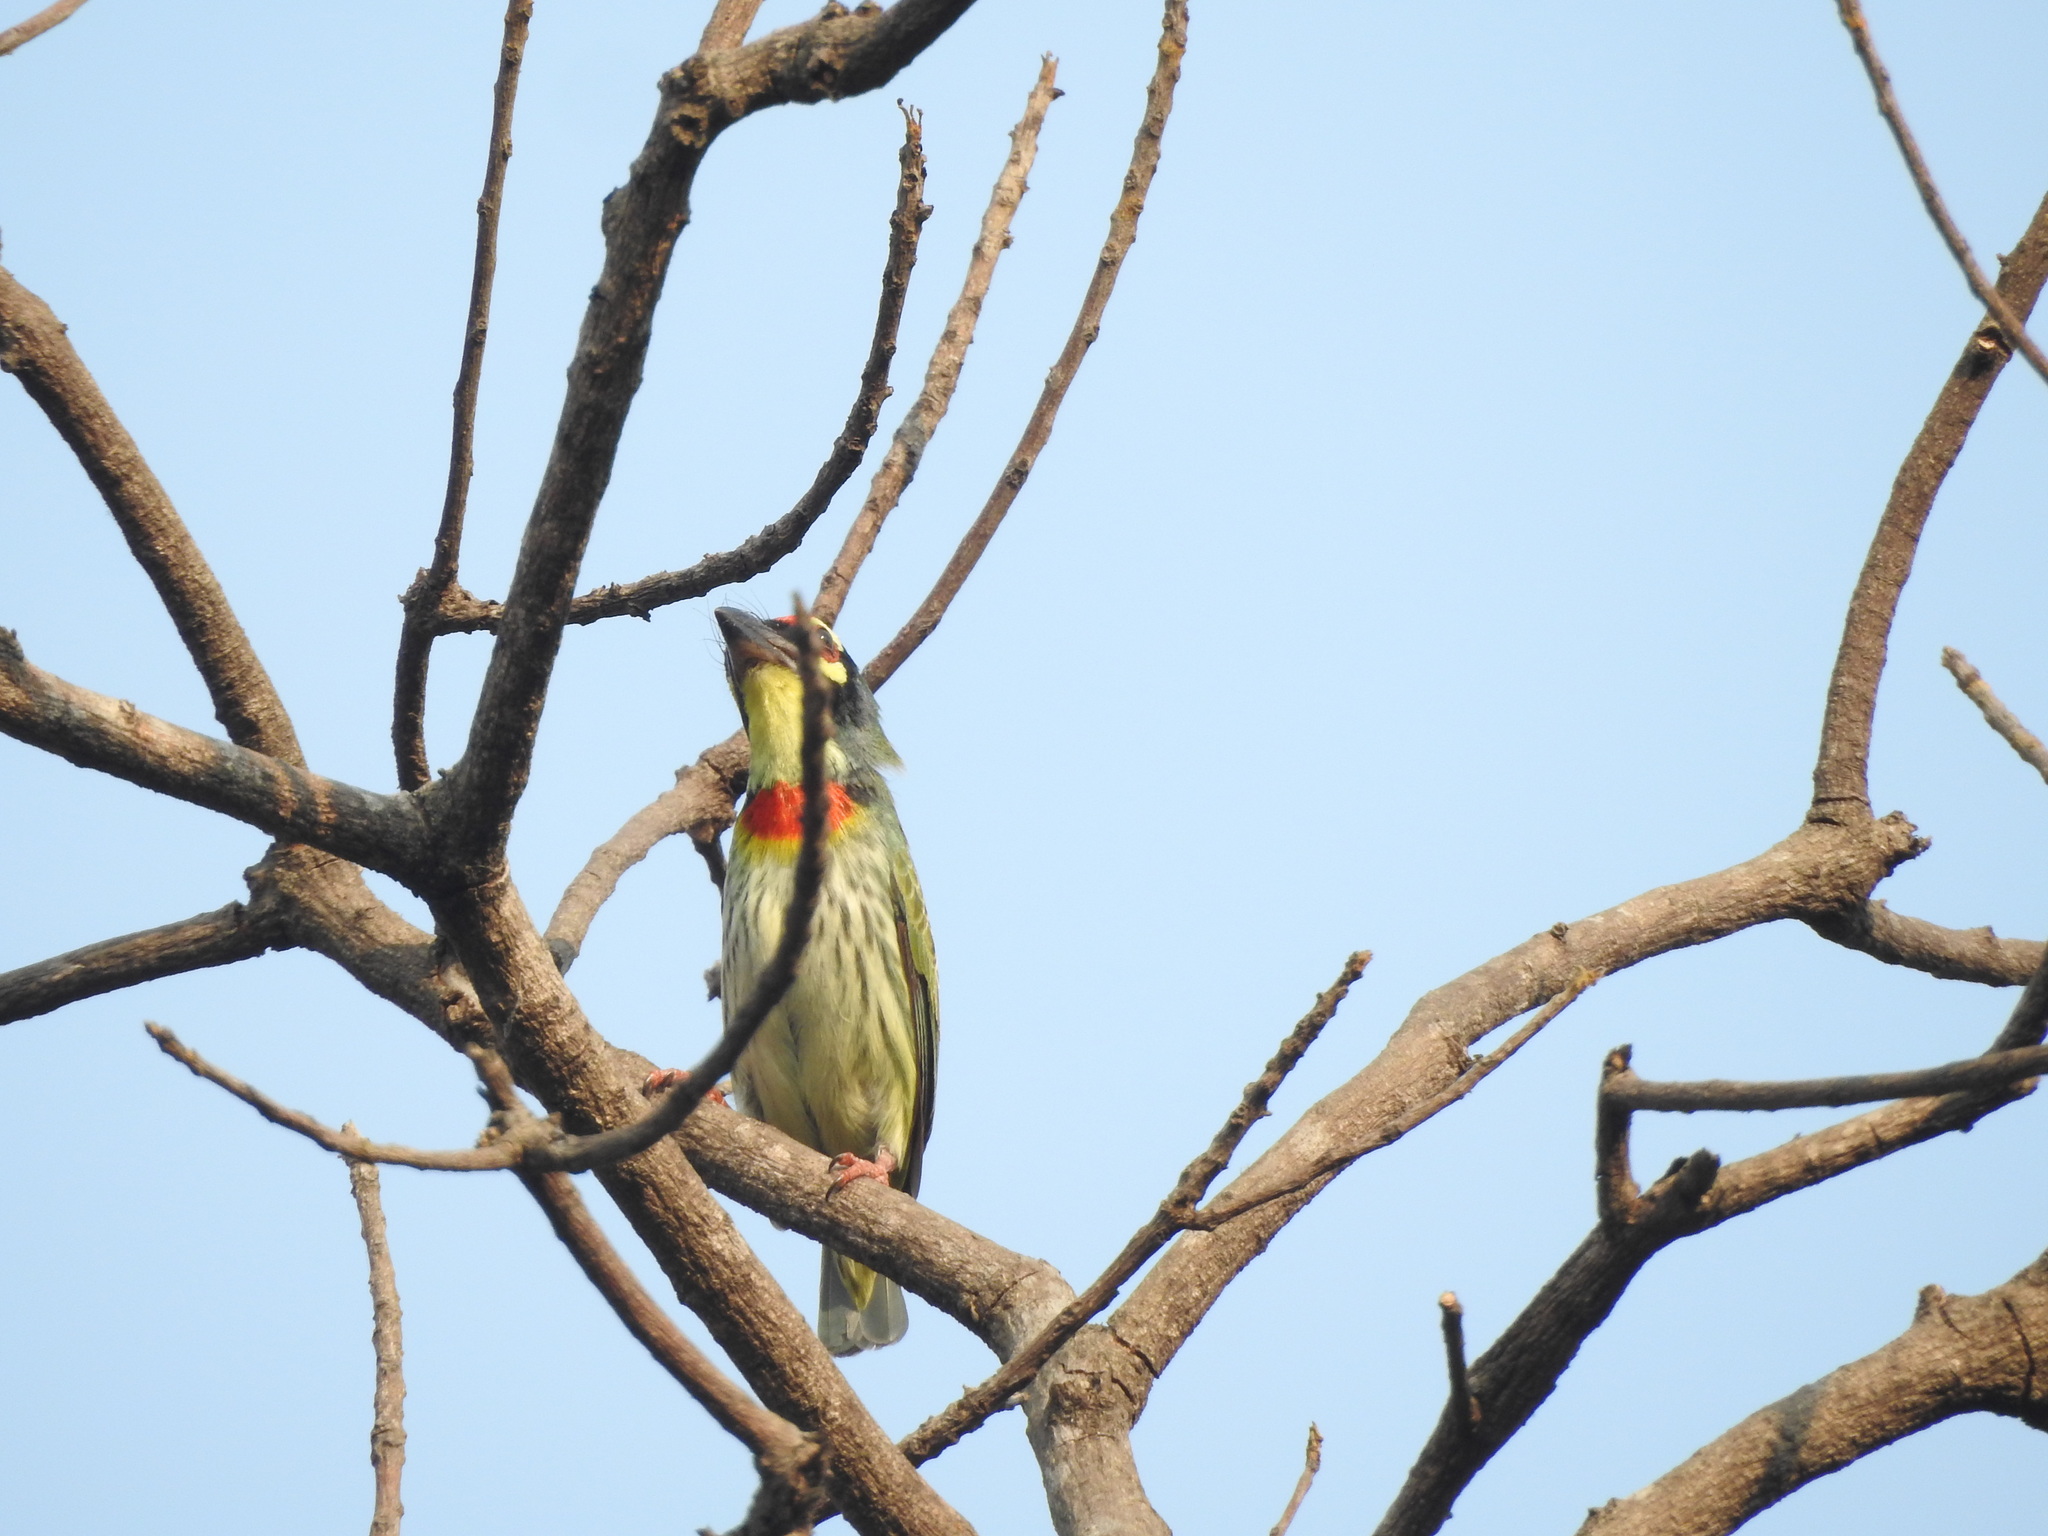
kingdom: Animalia
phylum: Chordata
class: Aves
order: Piciformes
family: Megalaimidae
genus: Psilopogon
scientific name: Psilopogon haemacephalus
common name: Coppersmith barbet
